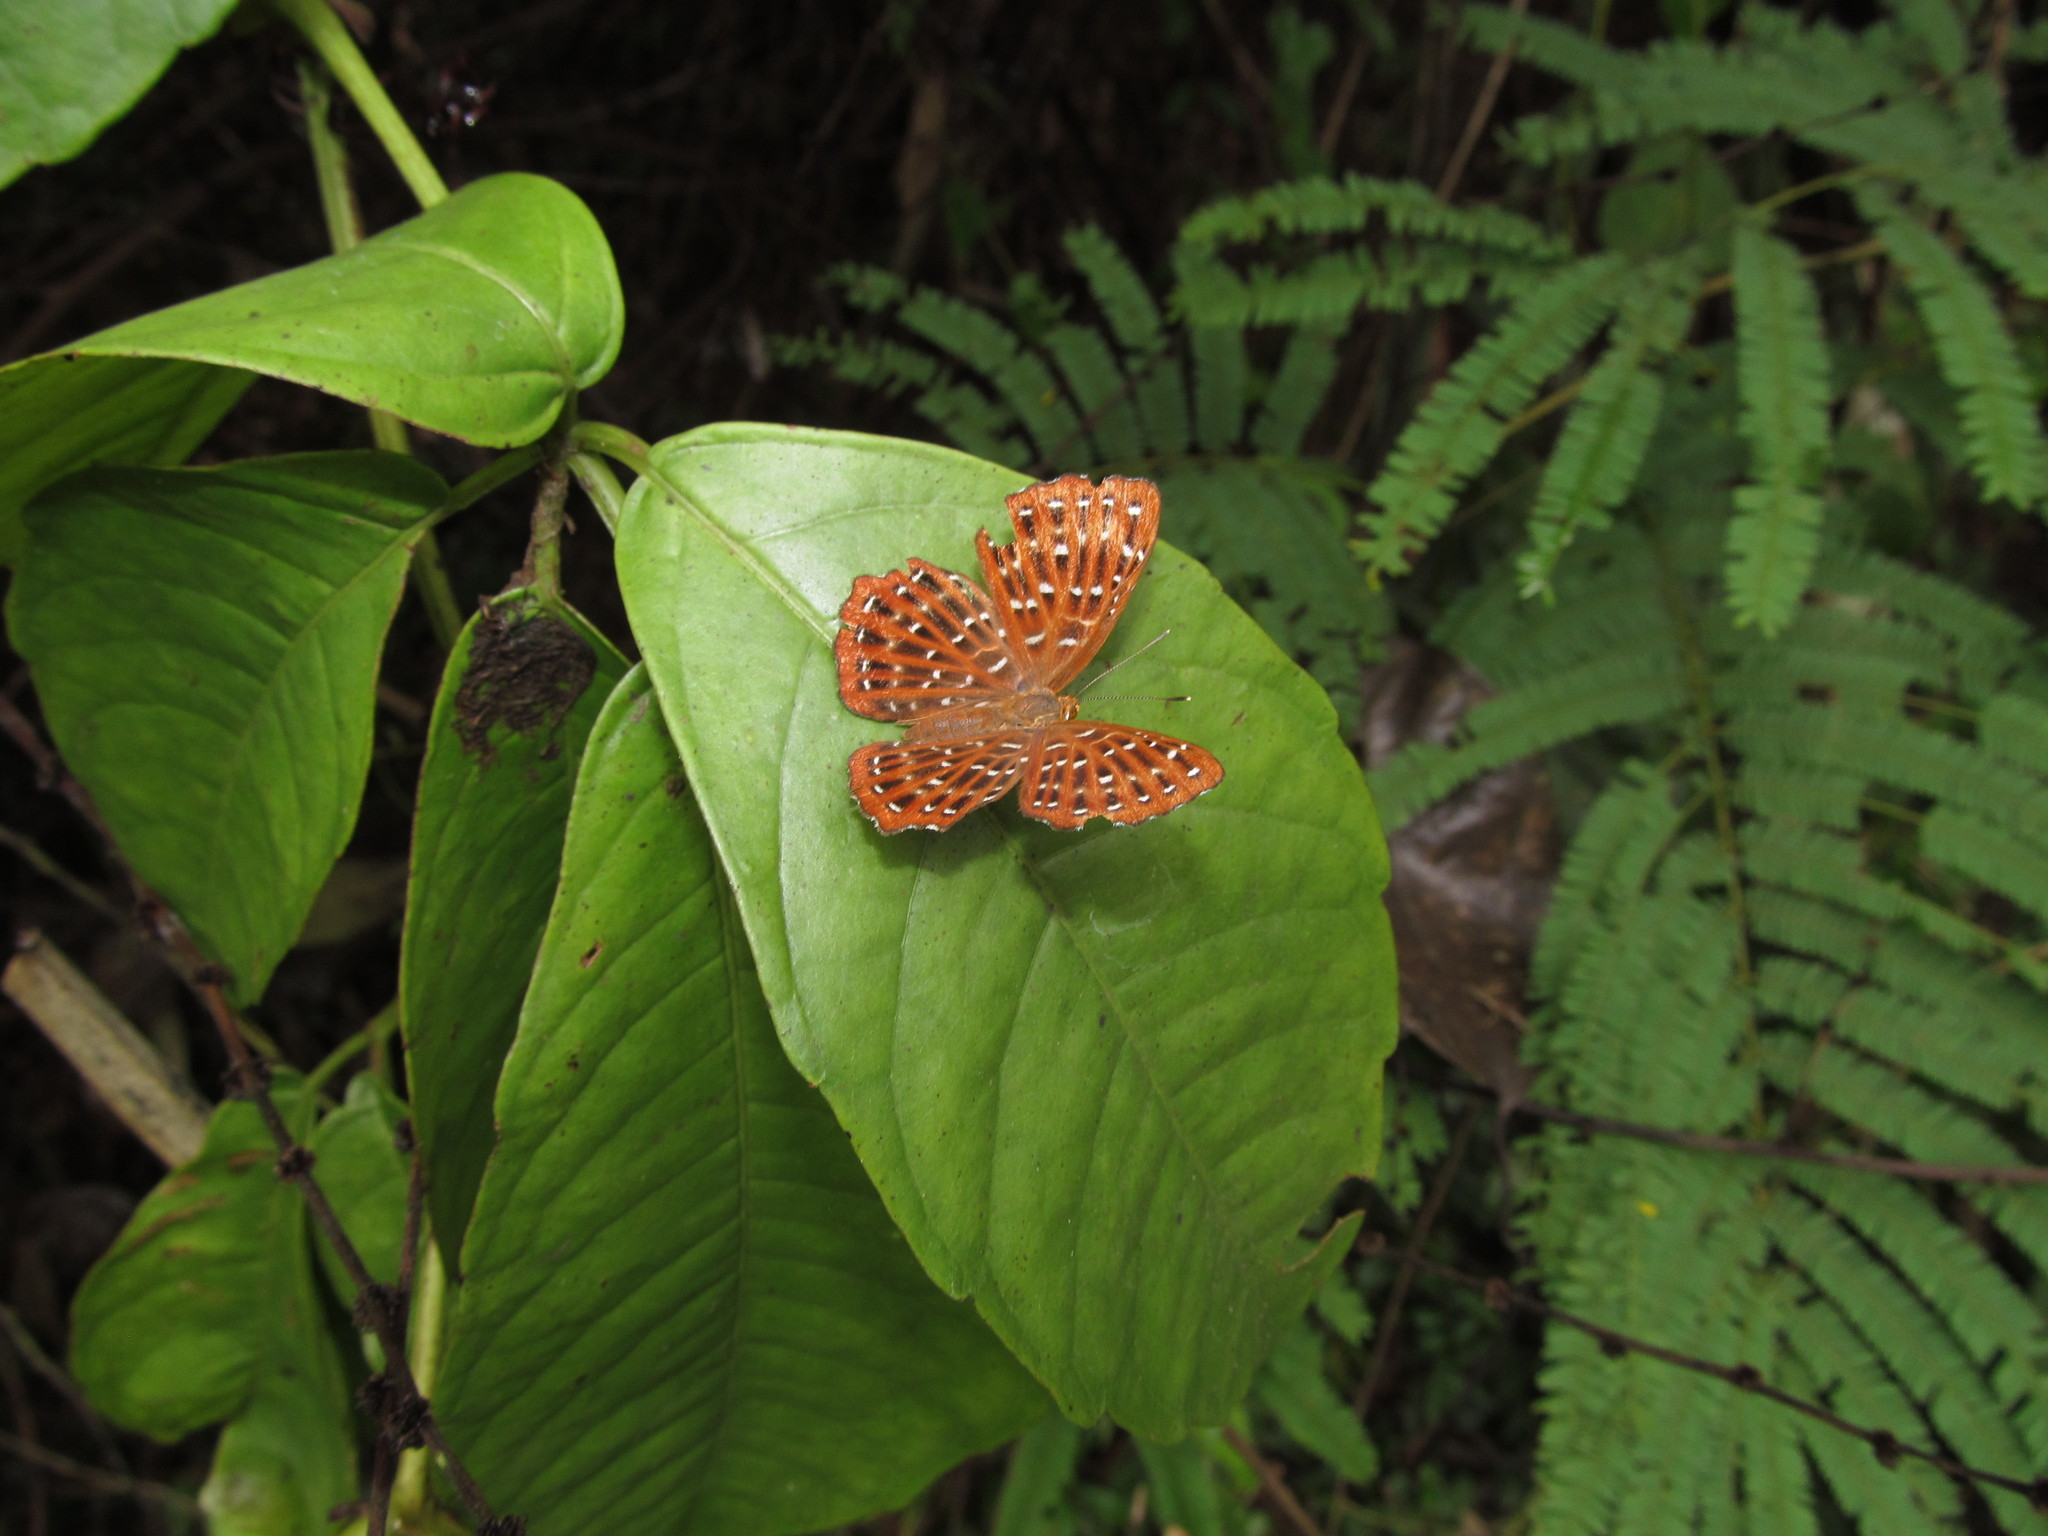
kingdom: Animalia
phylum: Arthropoda
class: Insecta
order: Lepidoptera
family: Riodinidae
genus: Zemeros
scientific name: Zemeros flegyas
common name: Punchinello
